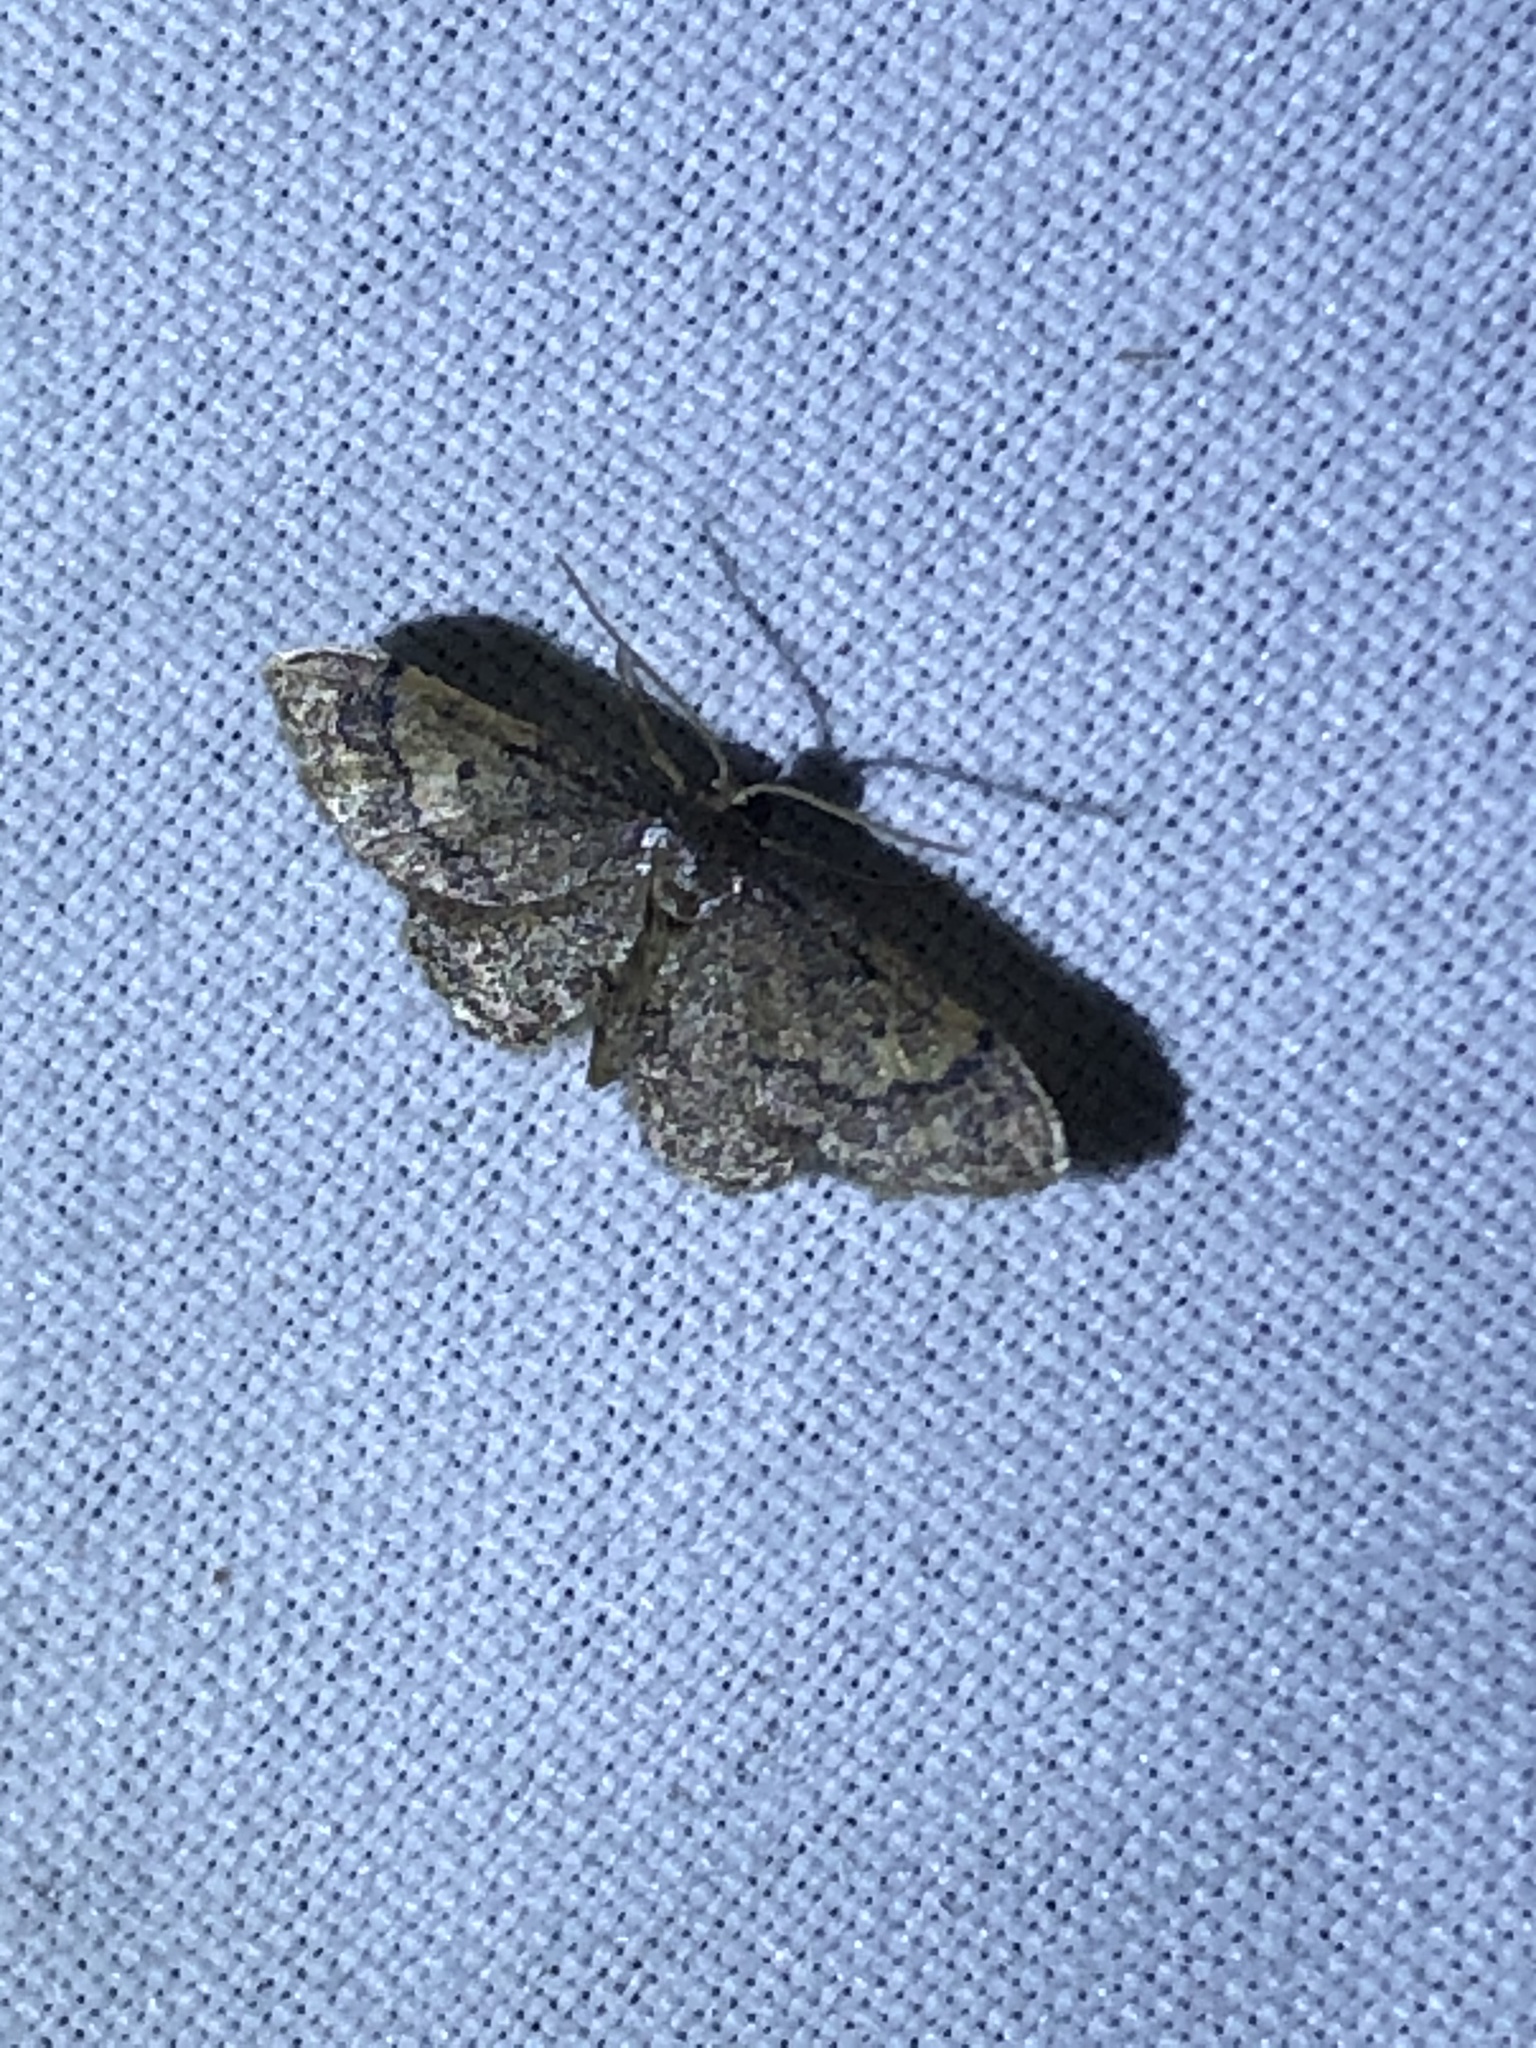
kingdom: Animalia
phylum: Arthropoda
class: Insecta
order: Lepidoptera
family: Geometridae
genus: Idaea
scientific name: Idaea celtima
